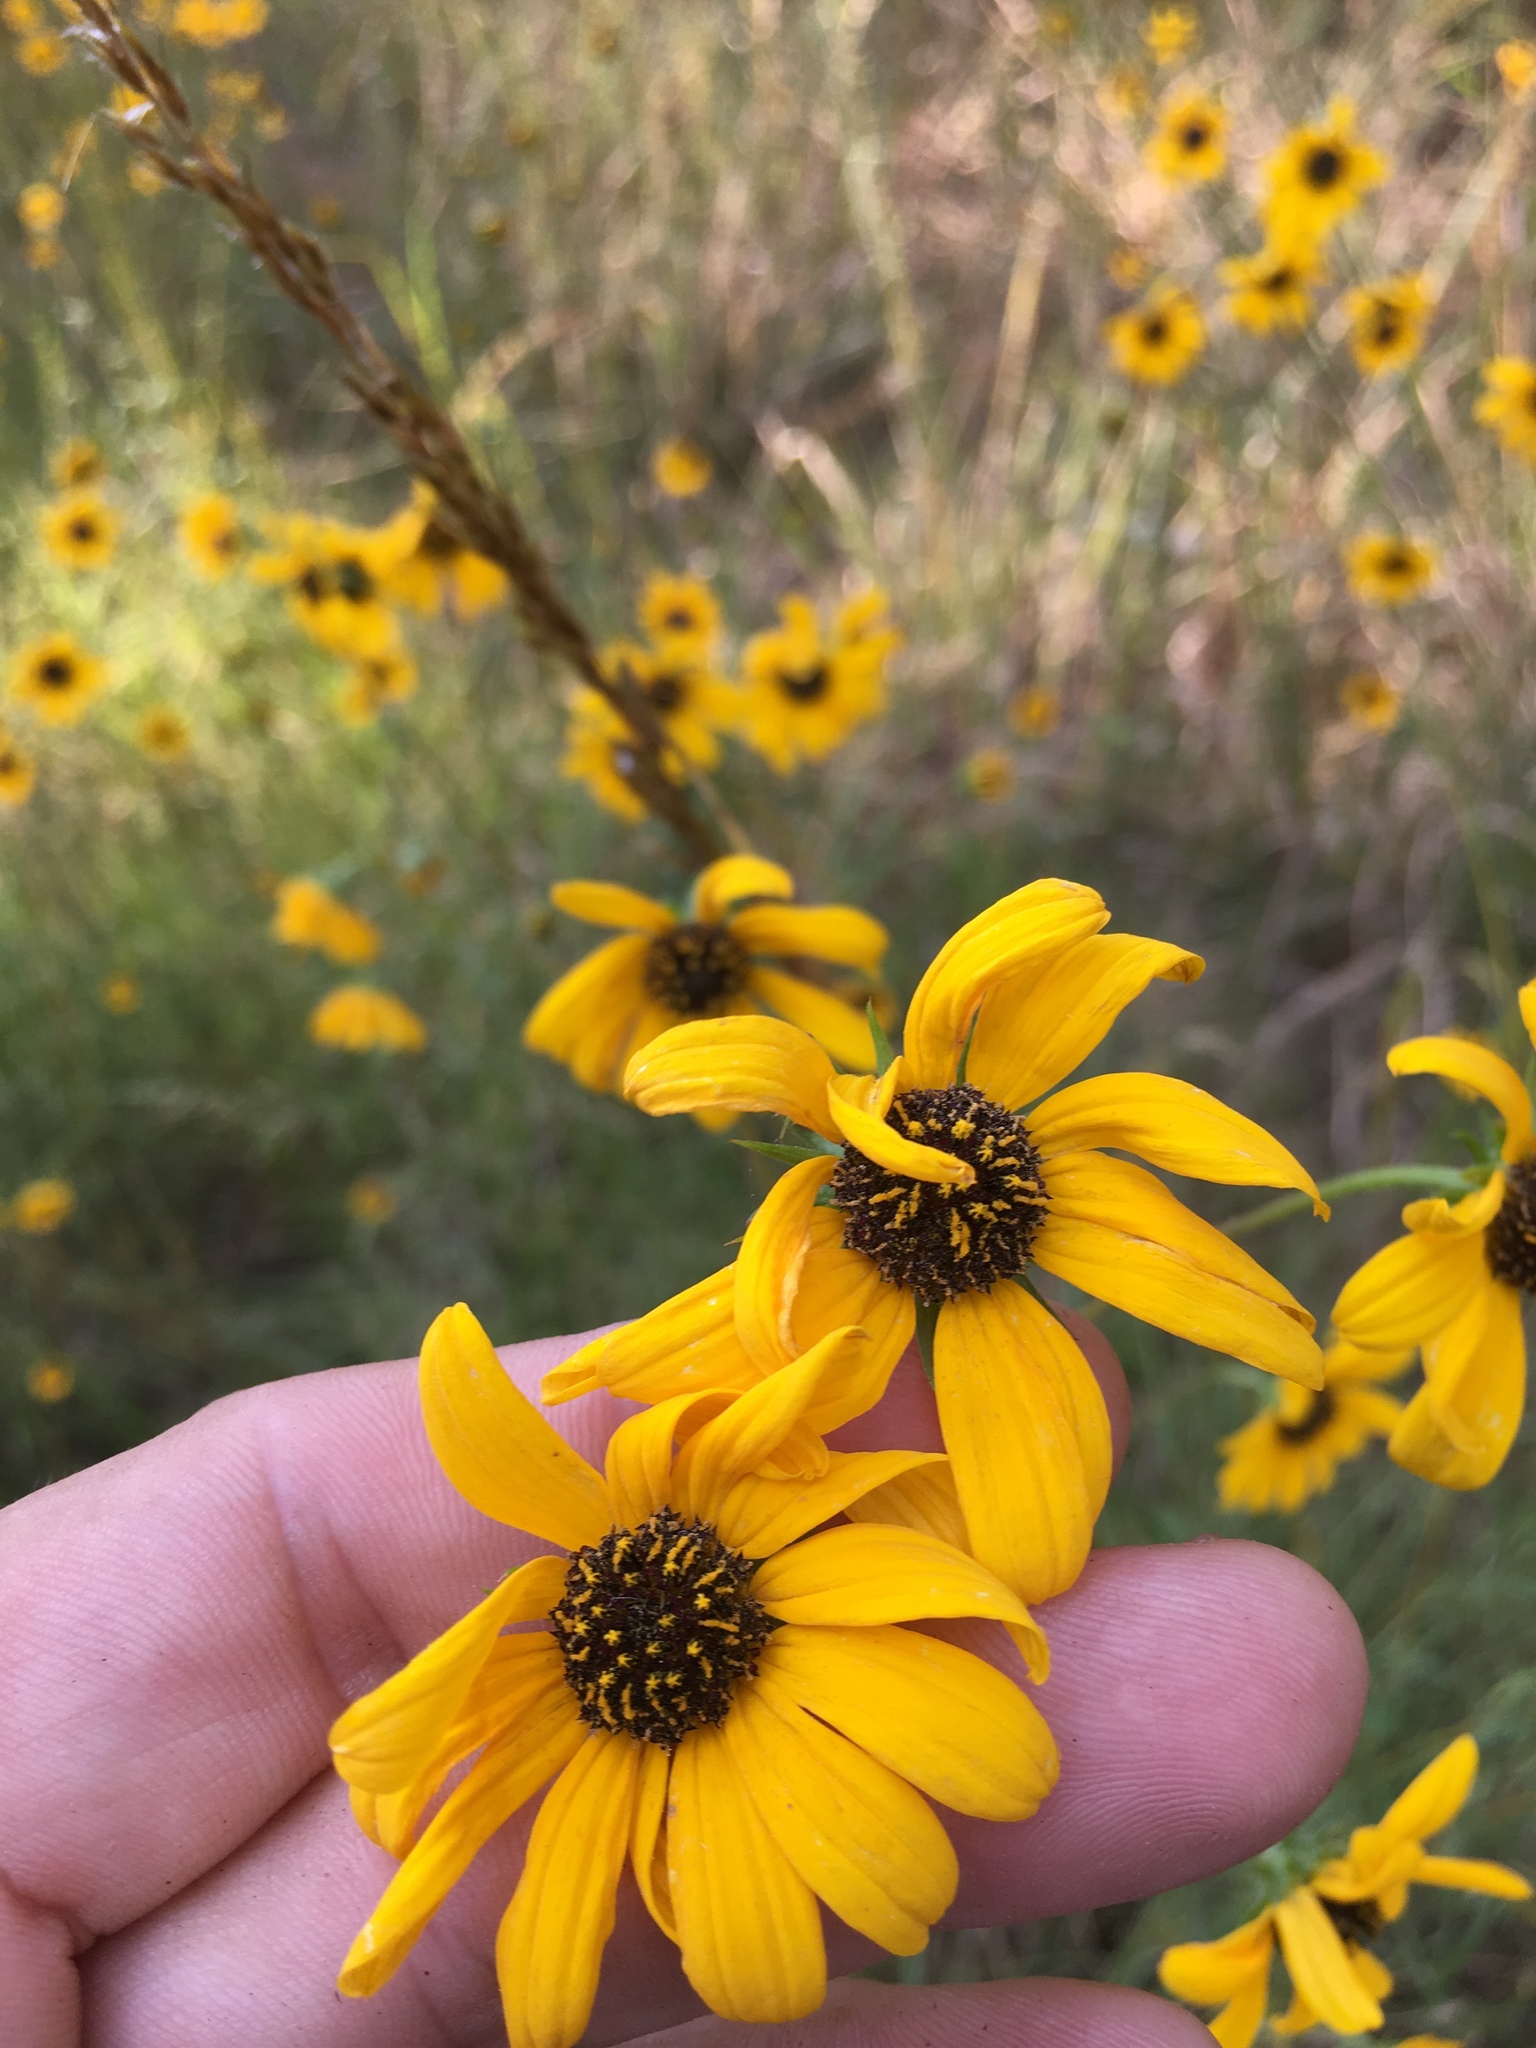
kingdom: Plantae
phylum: Tracheophyta
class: Magnoliopsida
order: Asterales
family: Asteraceae
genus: Helianthus
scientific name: Helianthus angustifolius
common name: Swamp sunflower
